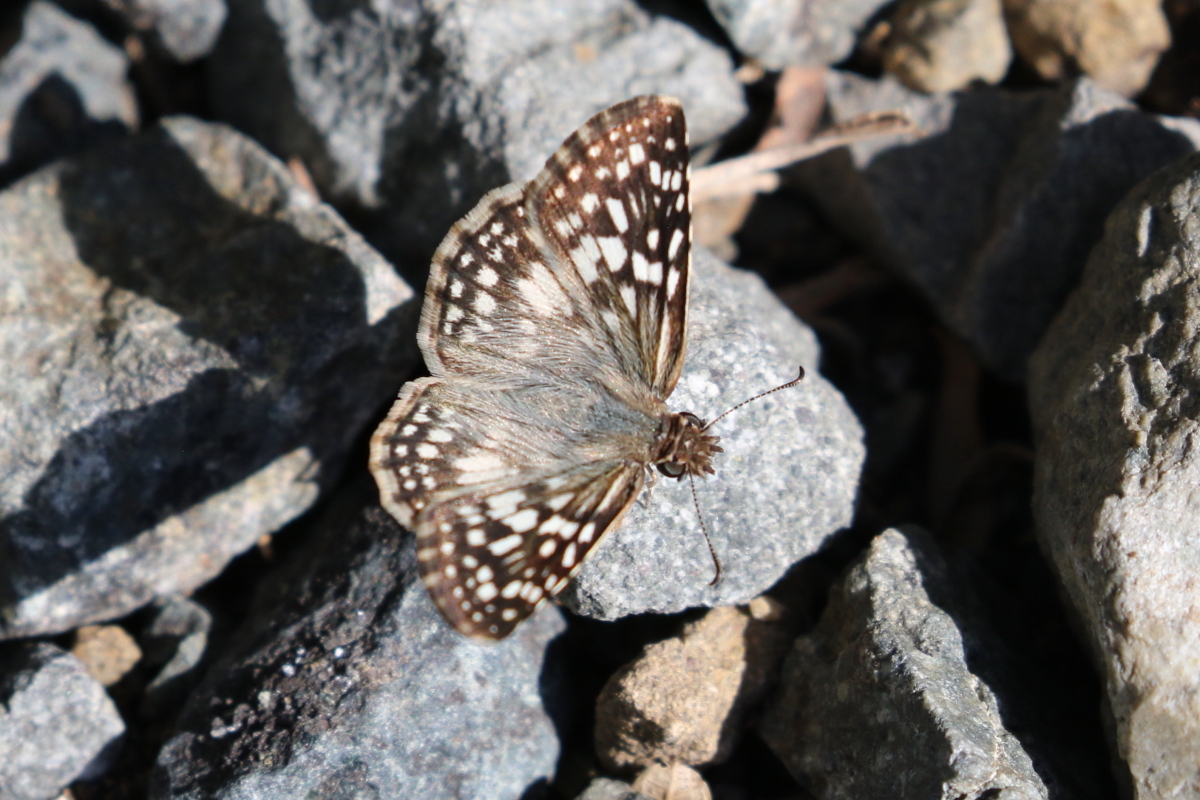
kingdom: Animalia
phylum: Arthropoda
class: Insecta
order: Lepidoptera
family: Hesperiidae
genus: Pyrgus
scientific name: Pyrgus oileus
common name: Tropical checkered-skipper
